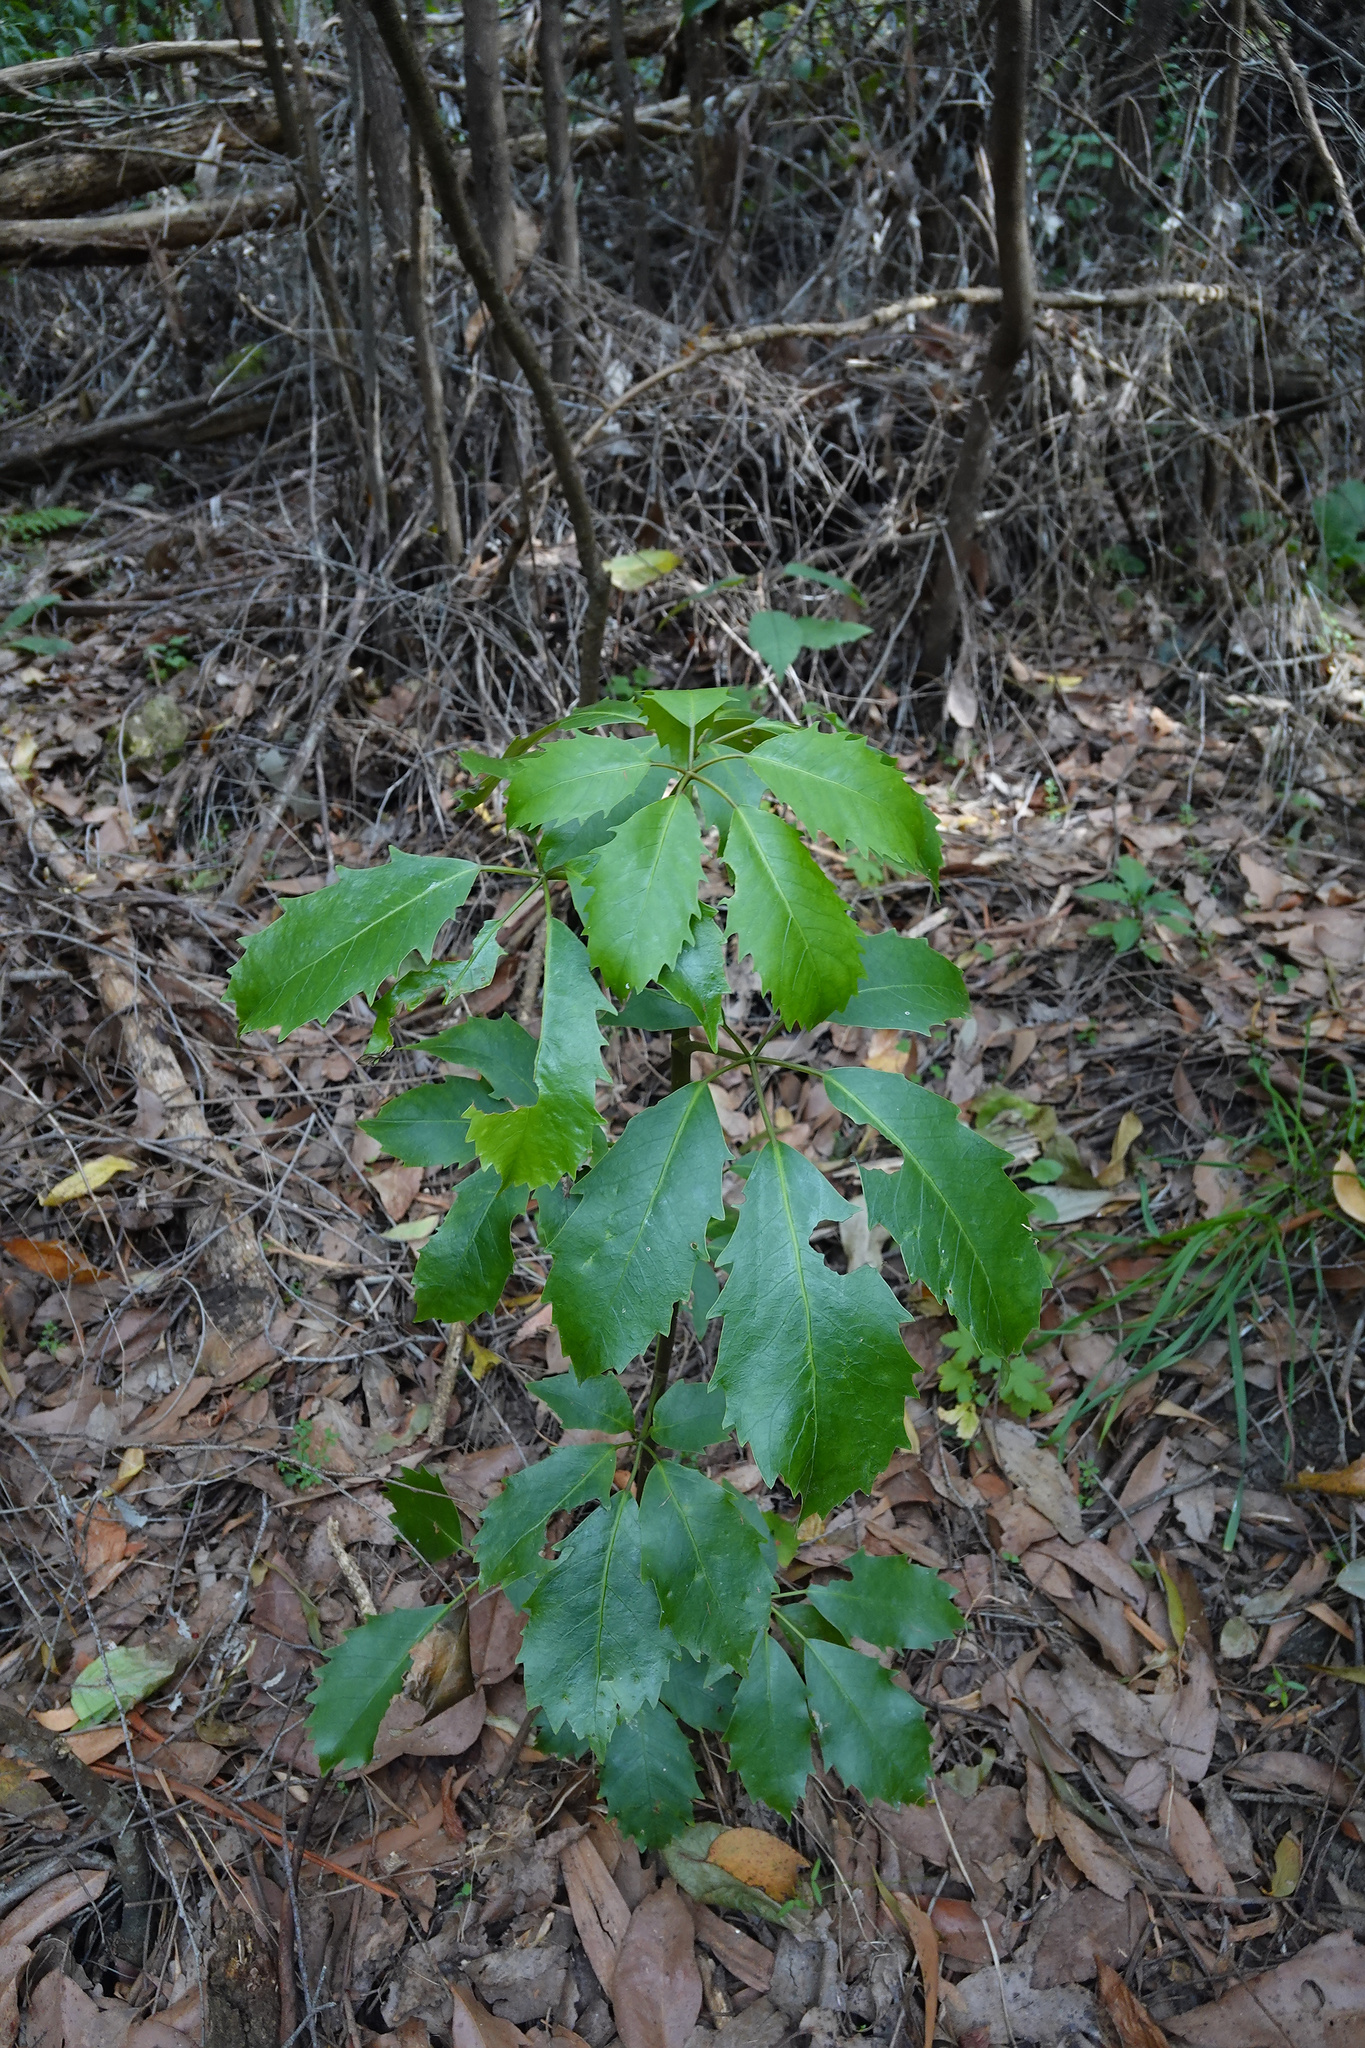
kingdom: Plantae
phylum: Tracheophyta
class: Magnoliopsida
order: Apiales
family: Araliaceae
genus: Neopanax
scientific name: Neopanax arboreus
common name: Five-fingers
